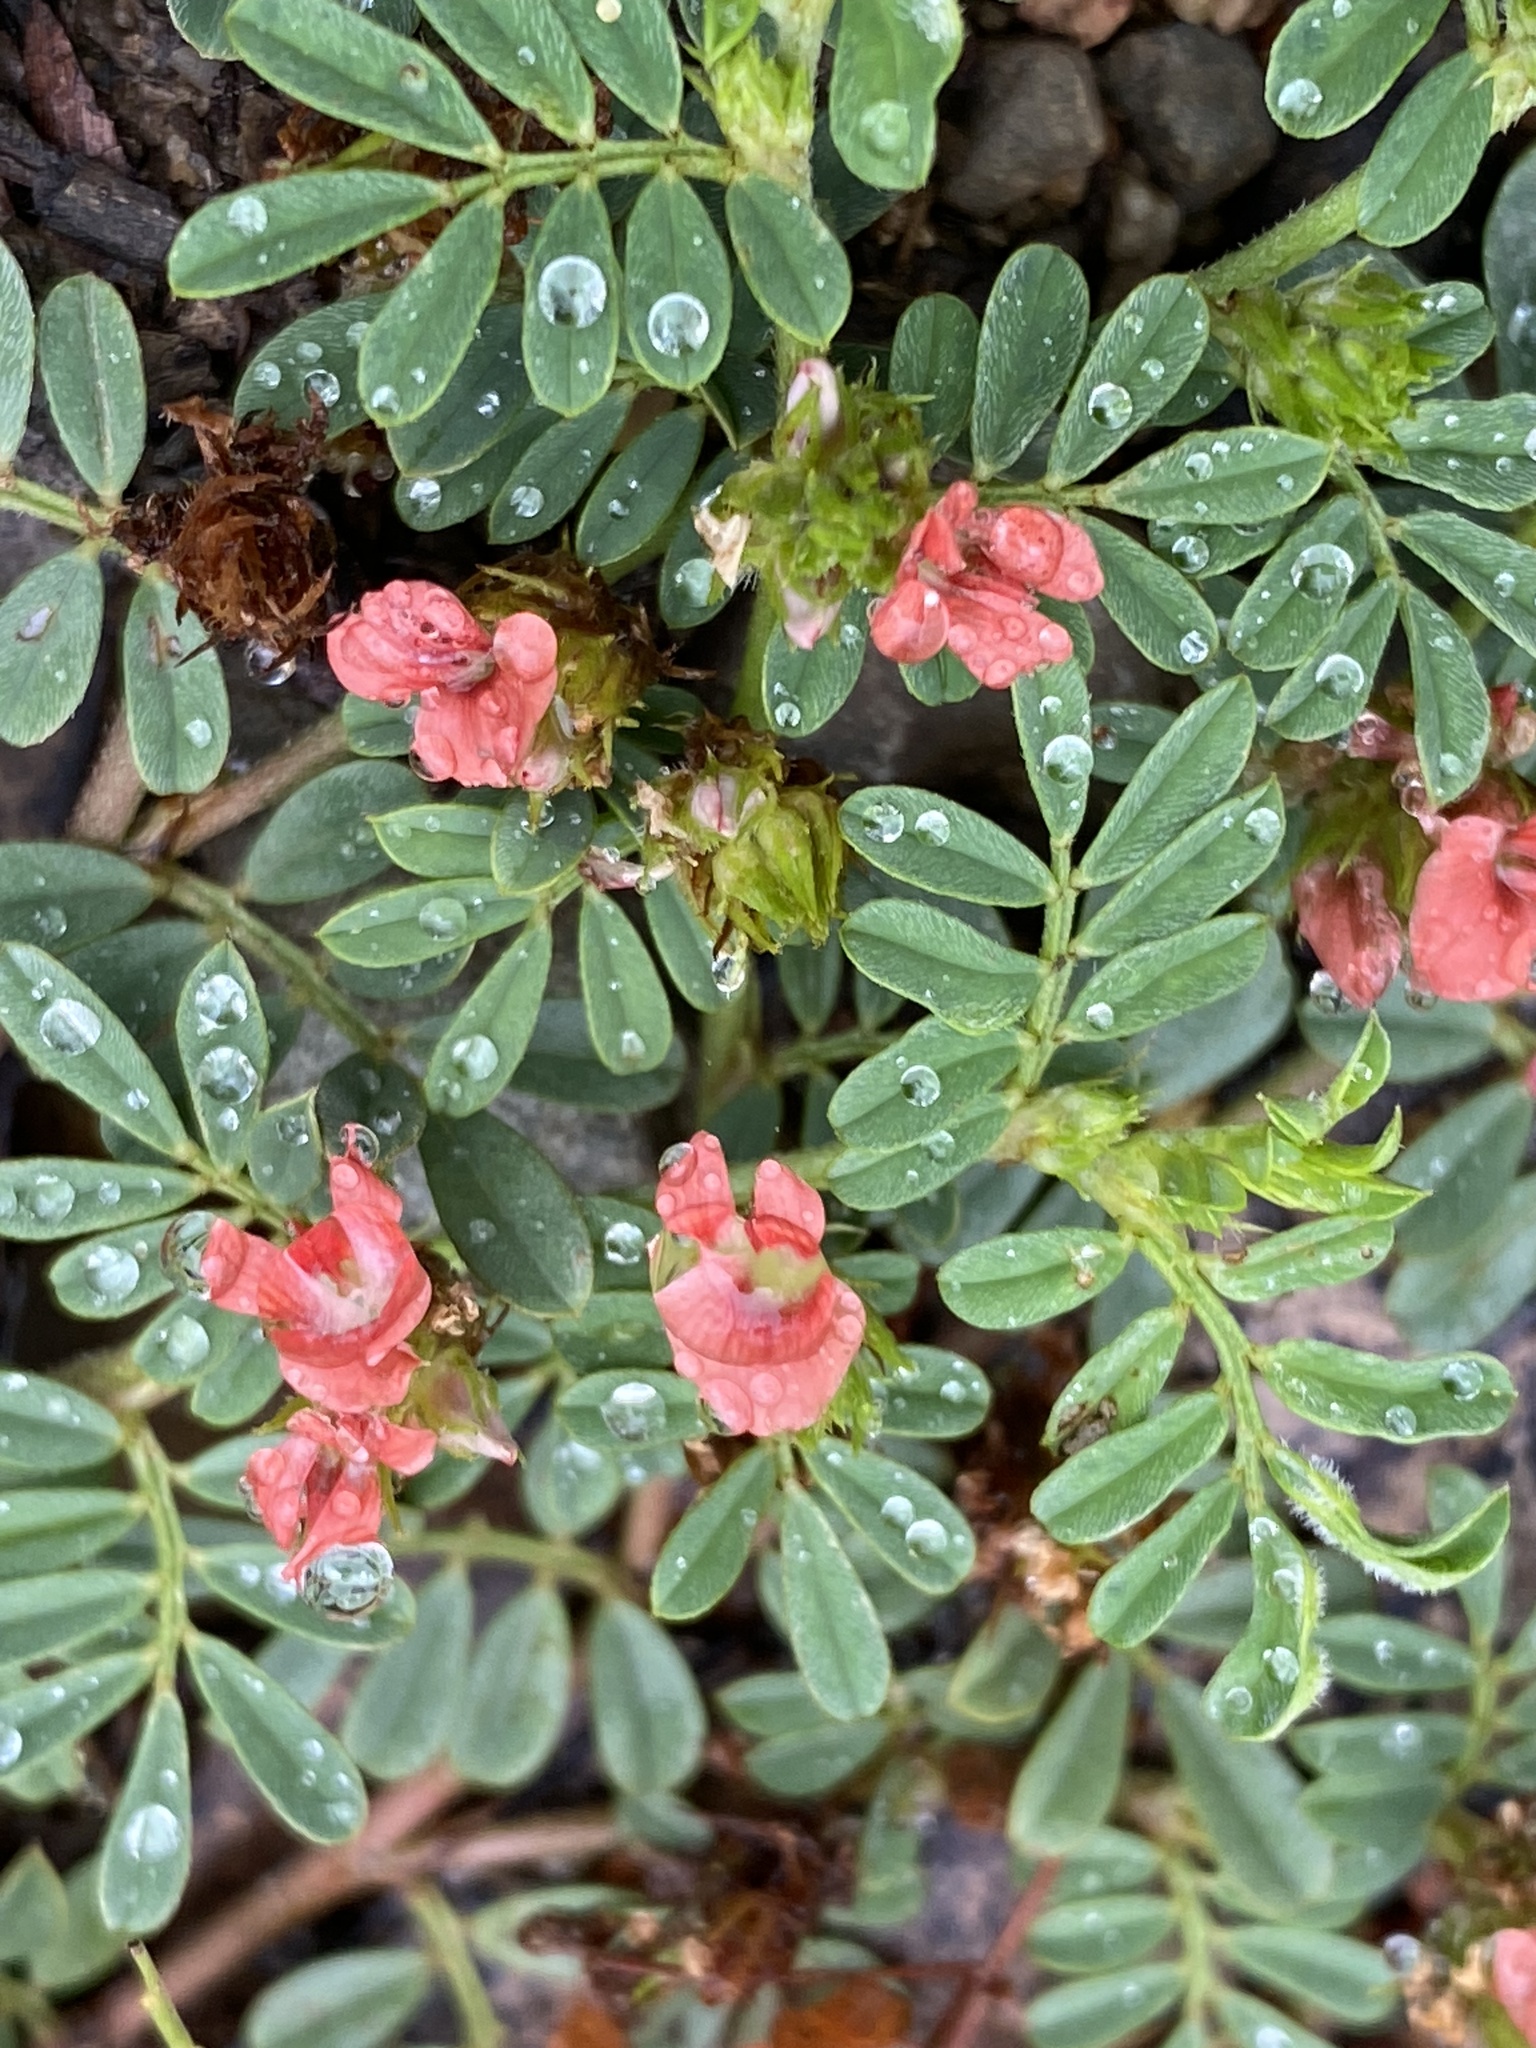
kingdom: Plantae
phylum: Tracheophyta
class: Magnoliopsida
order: Fabales
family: Fabaceae
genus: Indigofera
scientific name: Indigofera linnaei
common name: Nine-leaf indigo
